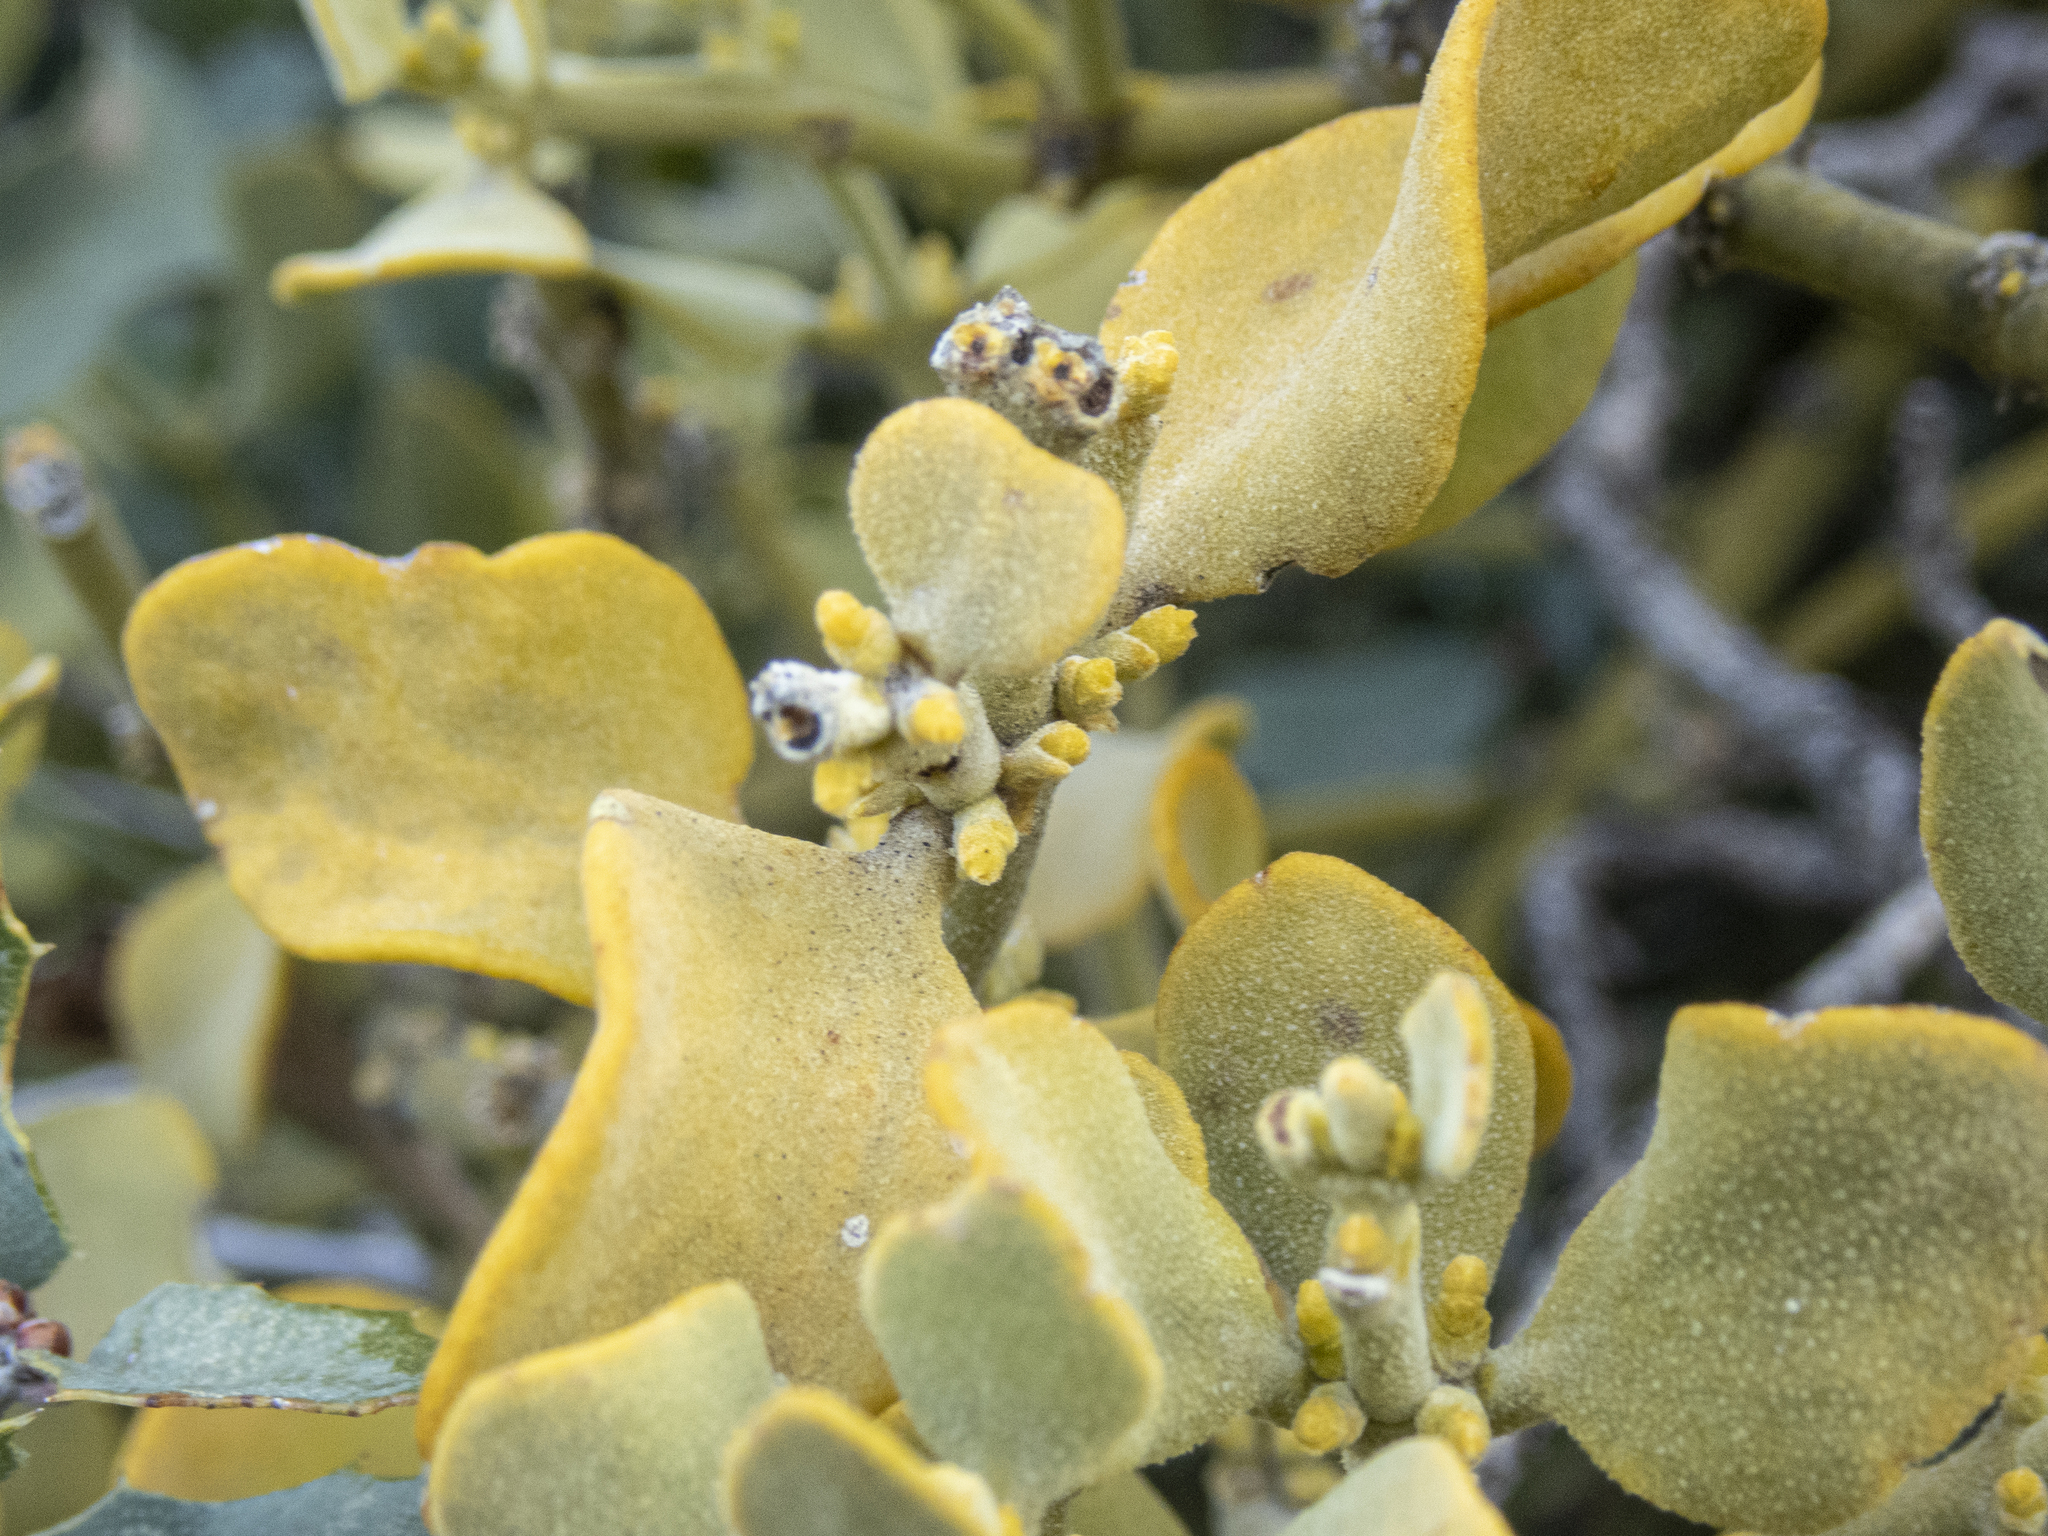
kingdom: Plantae
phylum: Tracheophyta
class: Magnoliopsida
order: Santalales
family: Viscaceae
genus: Phoradendron
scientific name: Phoradendron coryae
